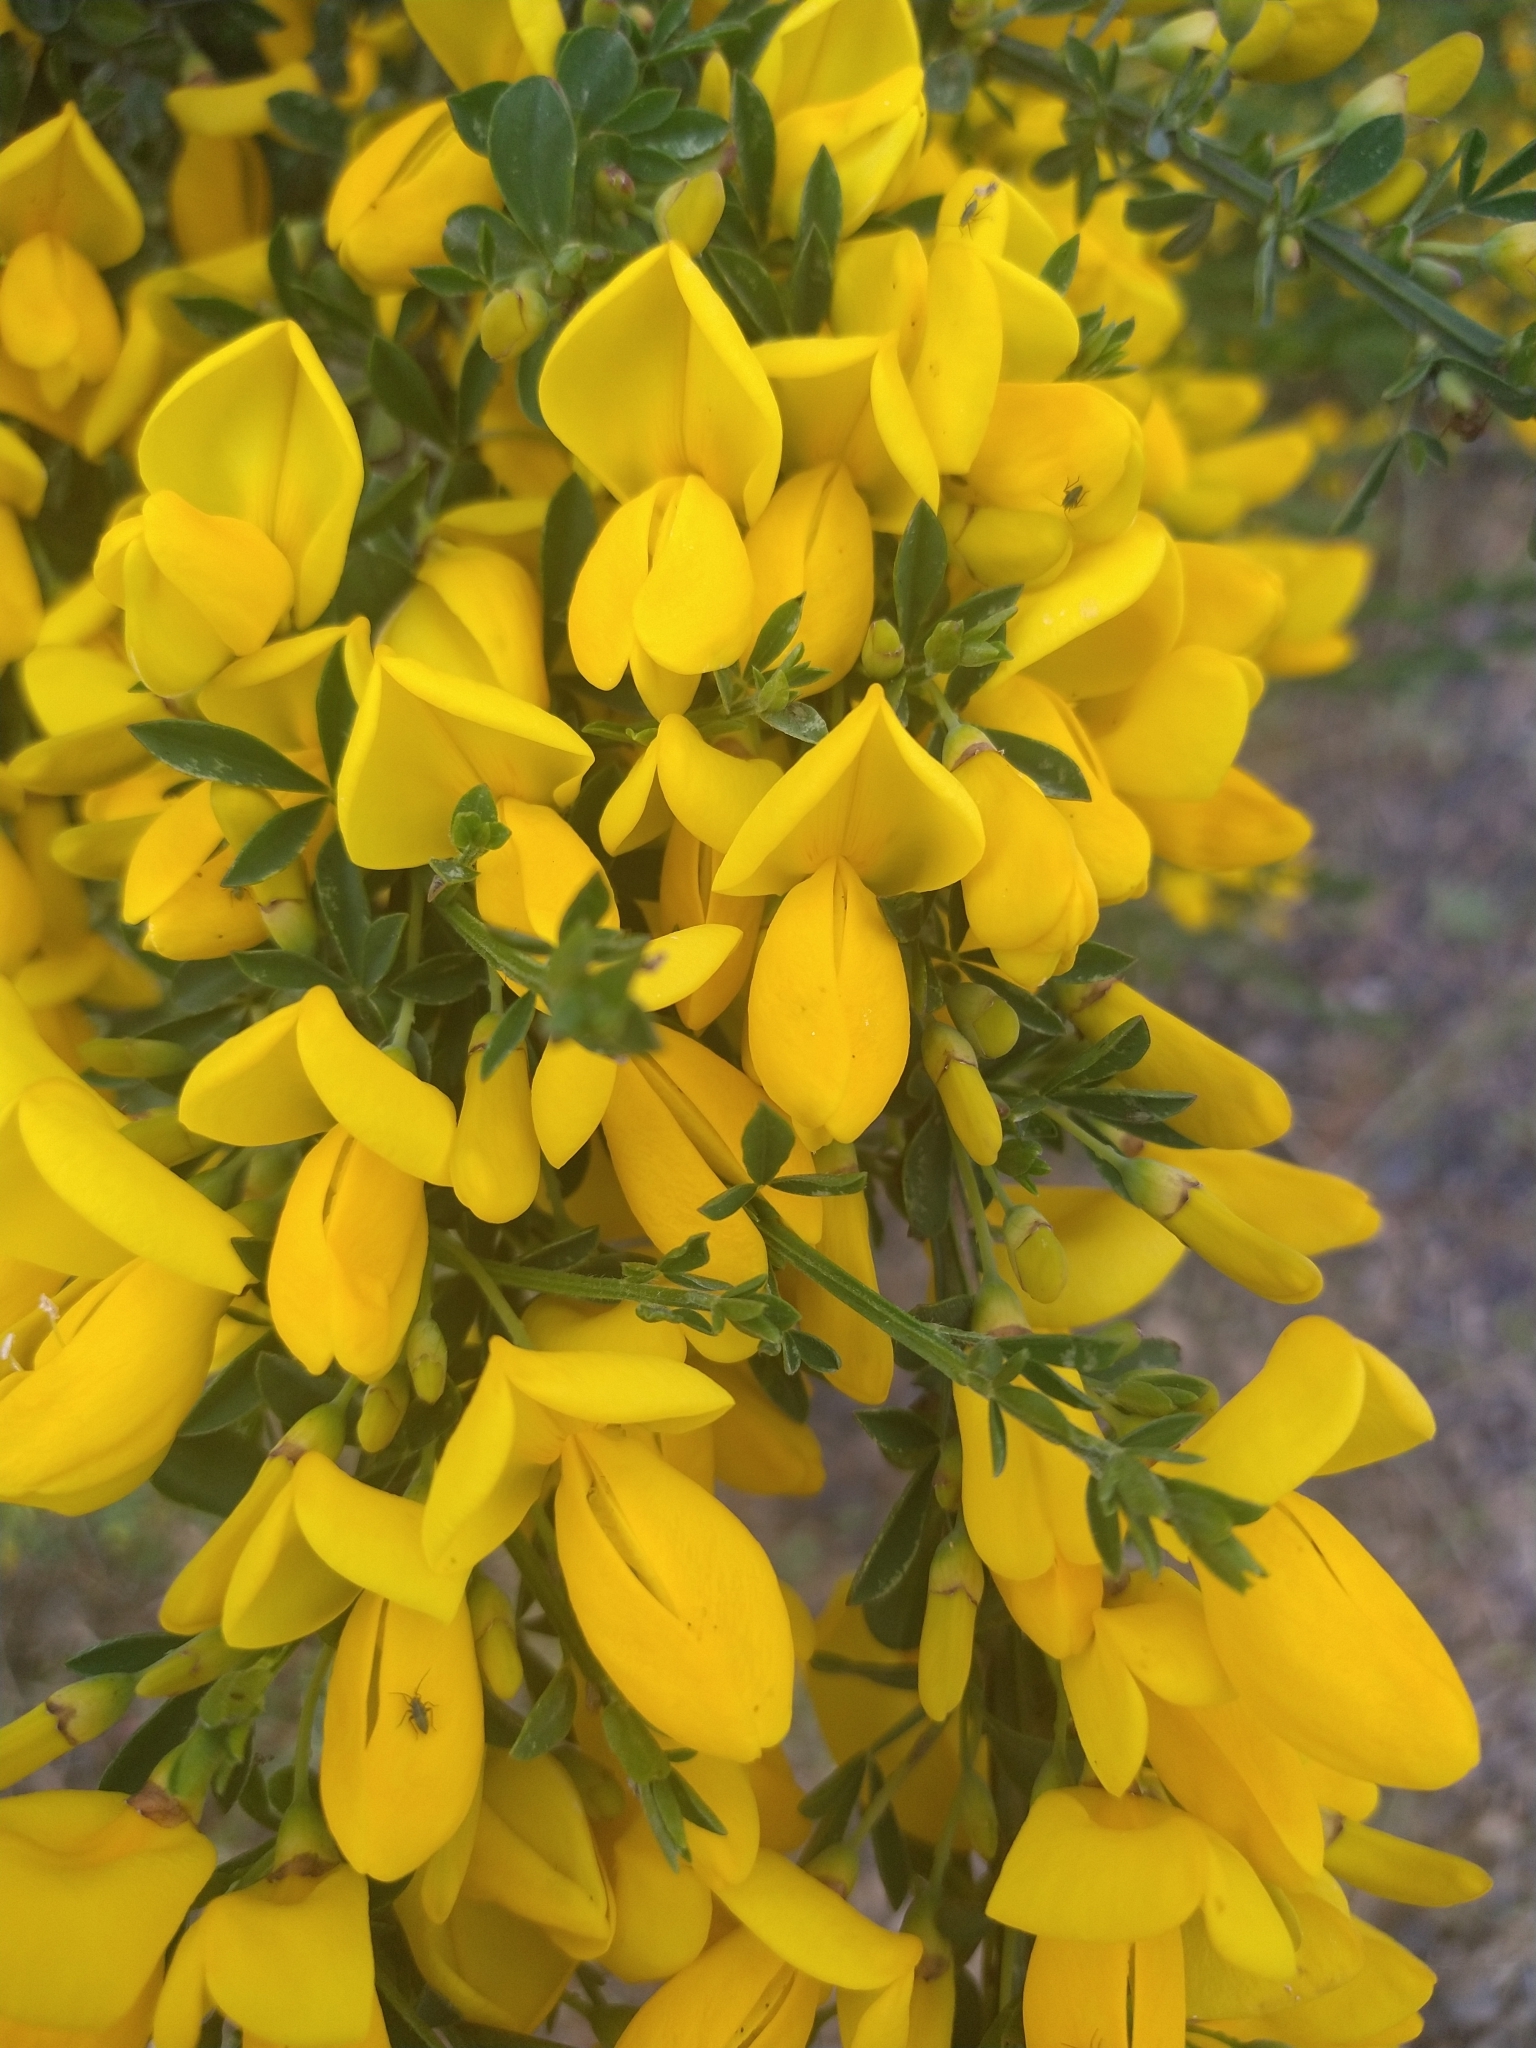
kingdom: Plantae
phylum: Tracheophyta
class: Magnoliopsida
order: Fabales
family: Fabaceae
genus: Cytisus
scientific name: Cytisus scoparius
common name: Scotch broom
